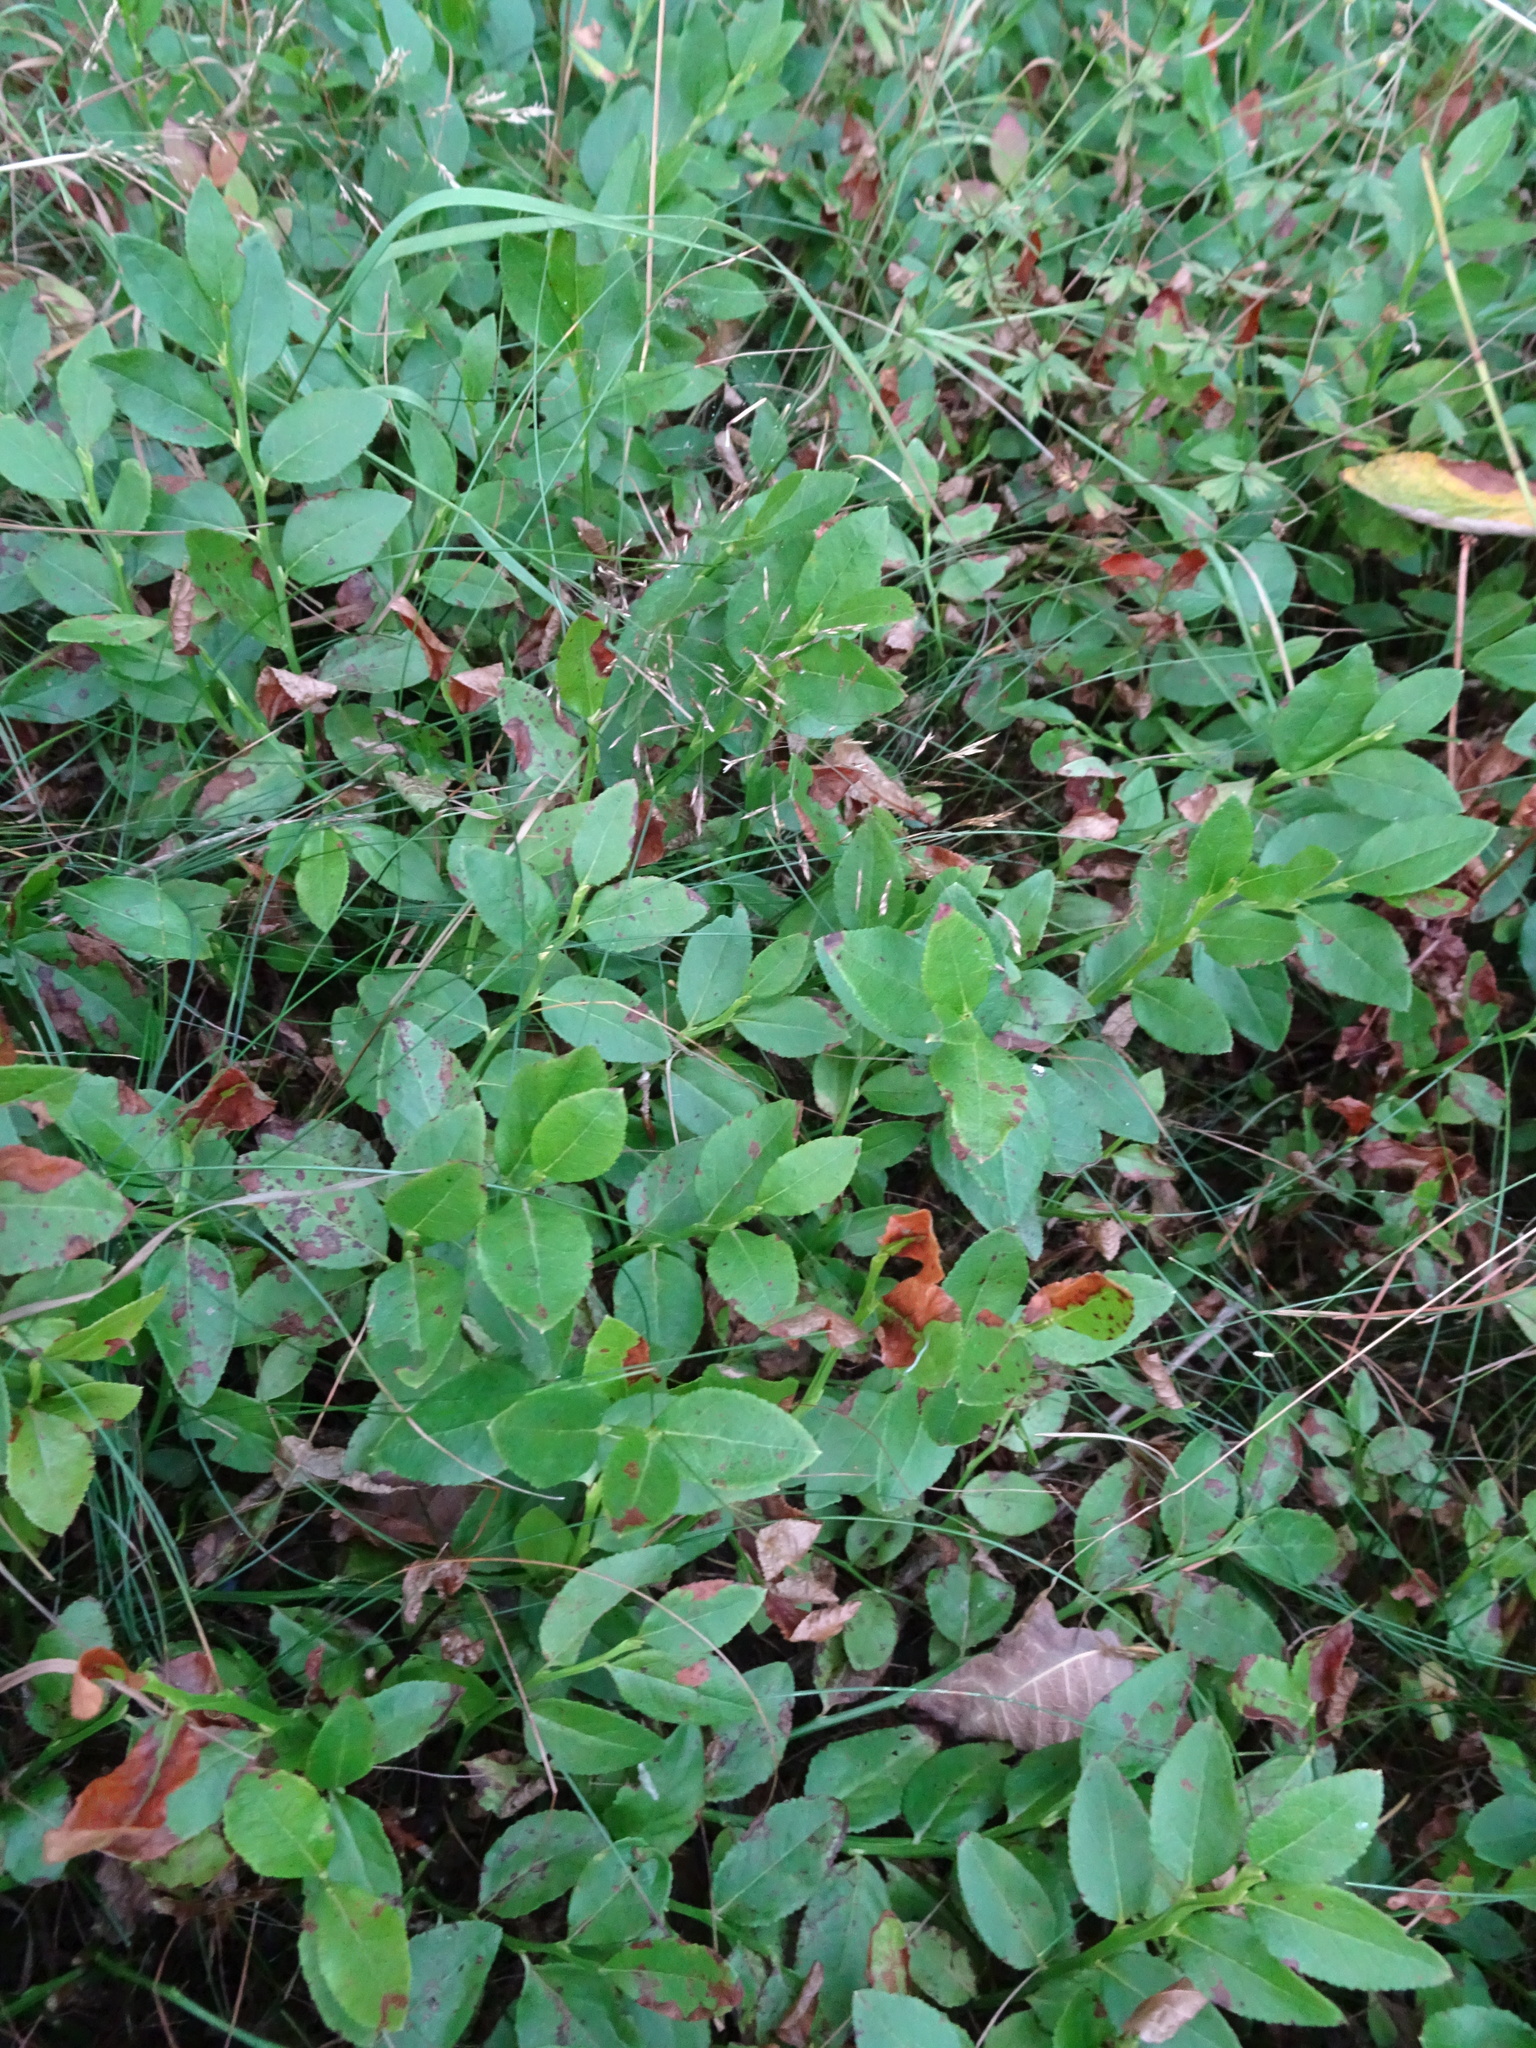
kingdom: Plantae
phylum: Tracheophyta
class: Magnoliopsida
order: Ericales
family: Ericaceae
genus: Vaccinium
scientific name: Vaccinium myrtillus
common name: Bilberry
